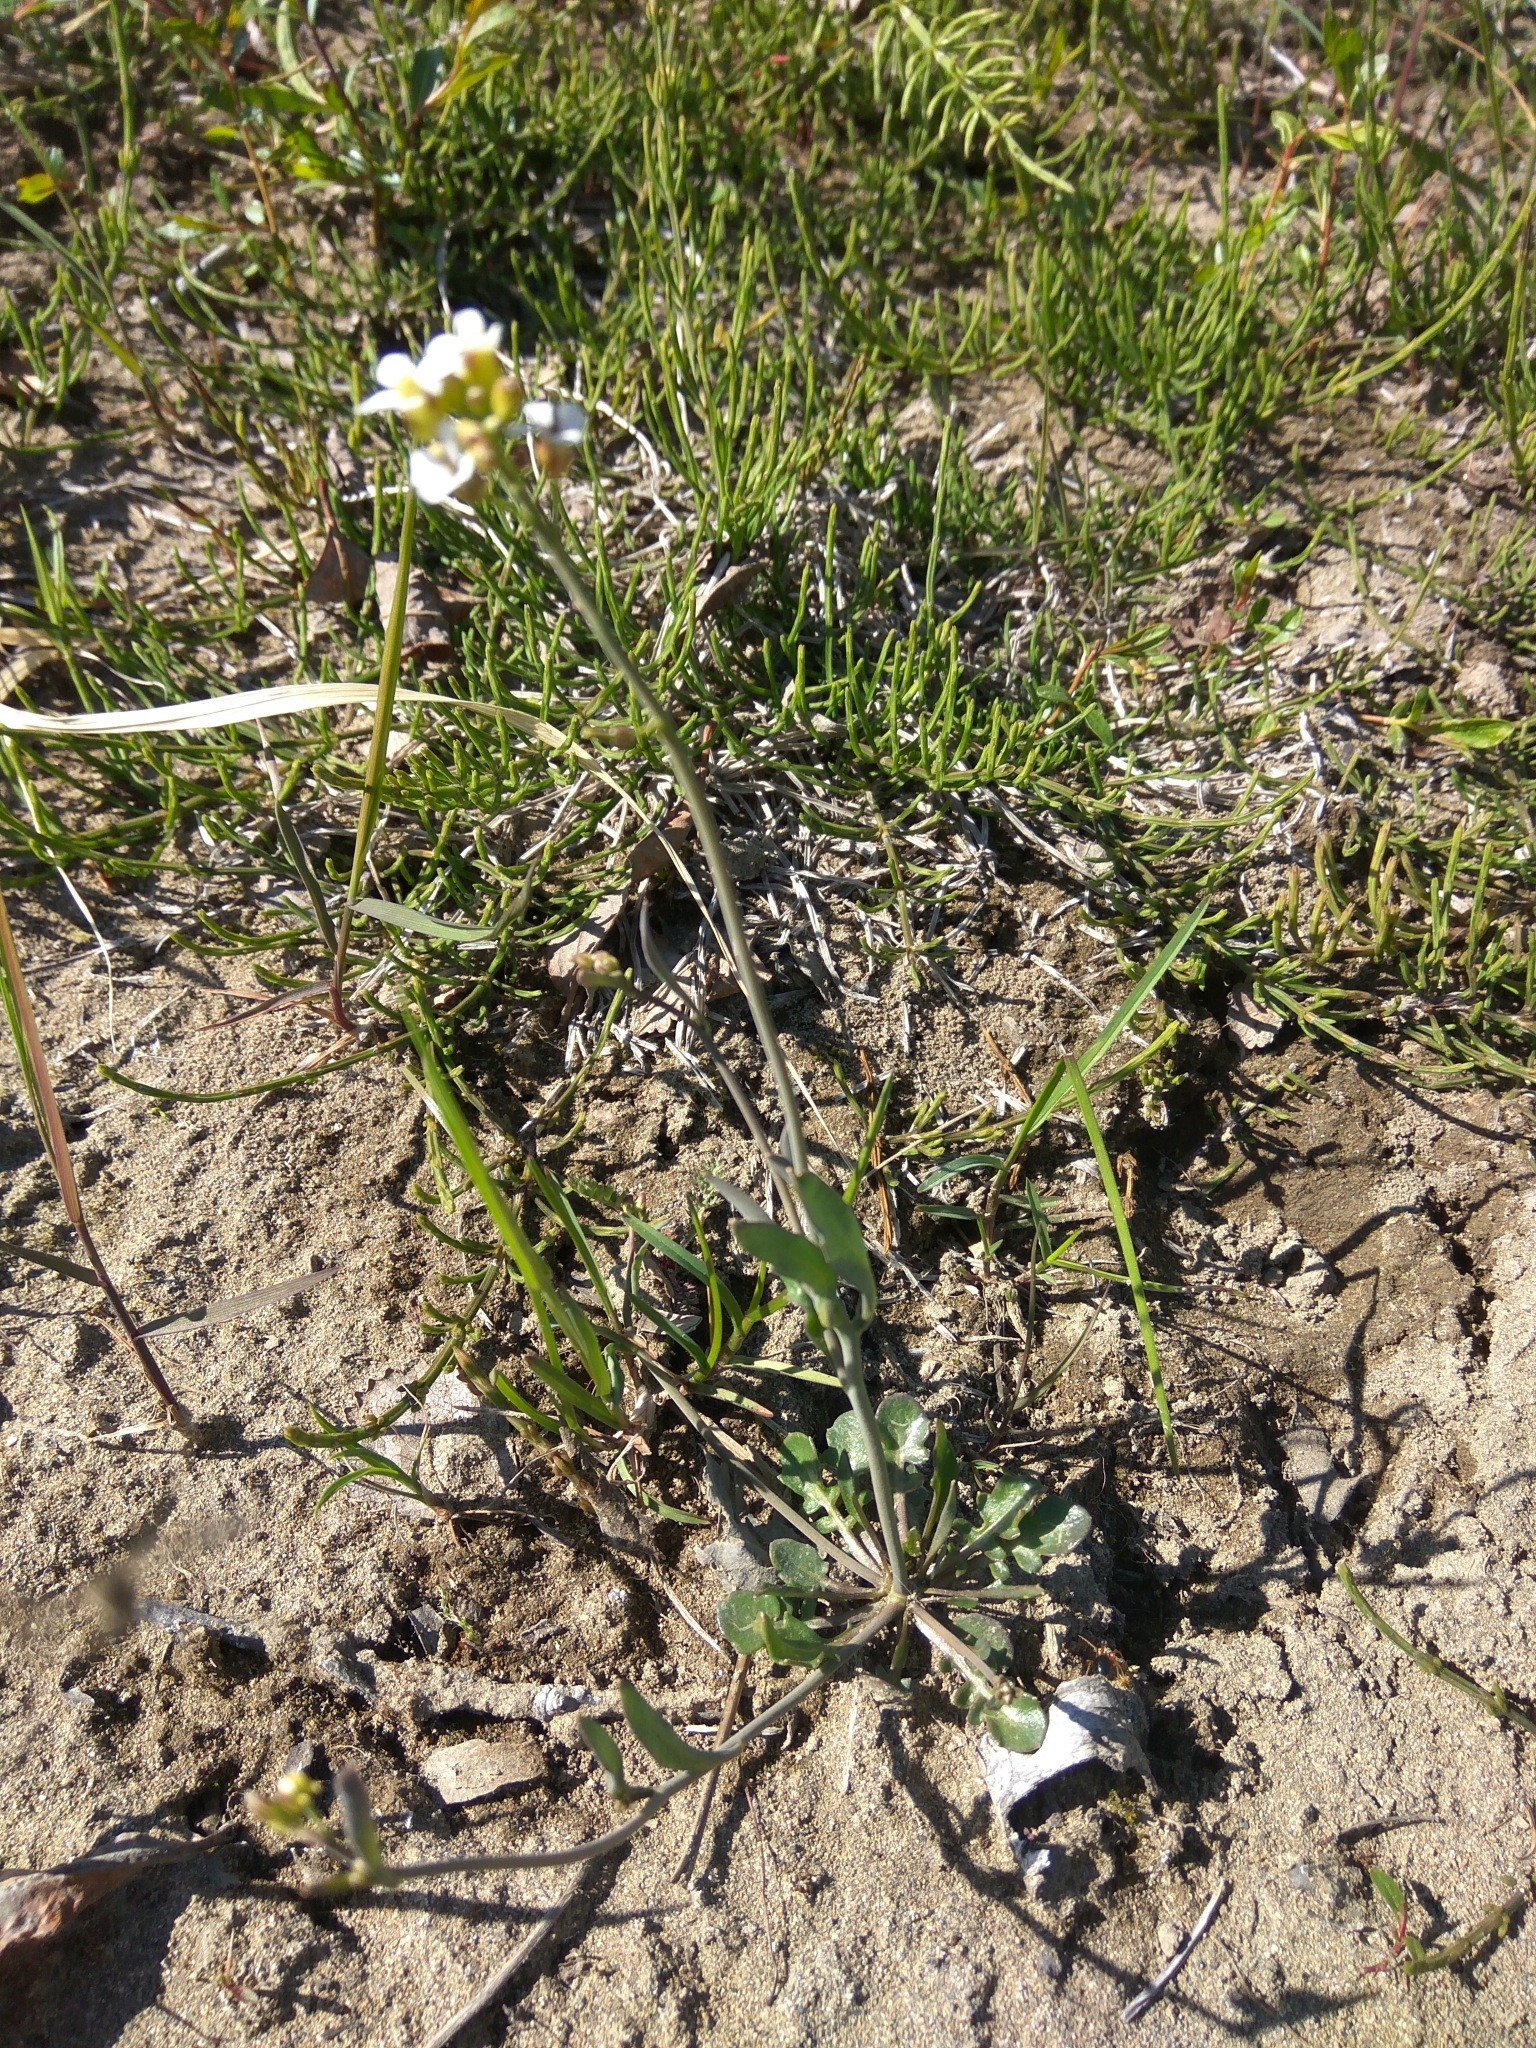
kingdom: Plantae
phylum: Tracheophyta
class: Magnoliopsida
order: Brassicales
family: Brassicaceae
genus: Arabidopsis
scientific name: Arabidopsis lyrata
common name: Lyrate rockcress
